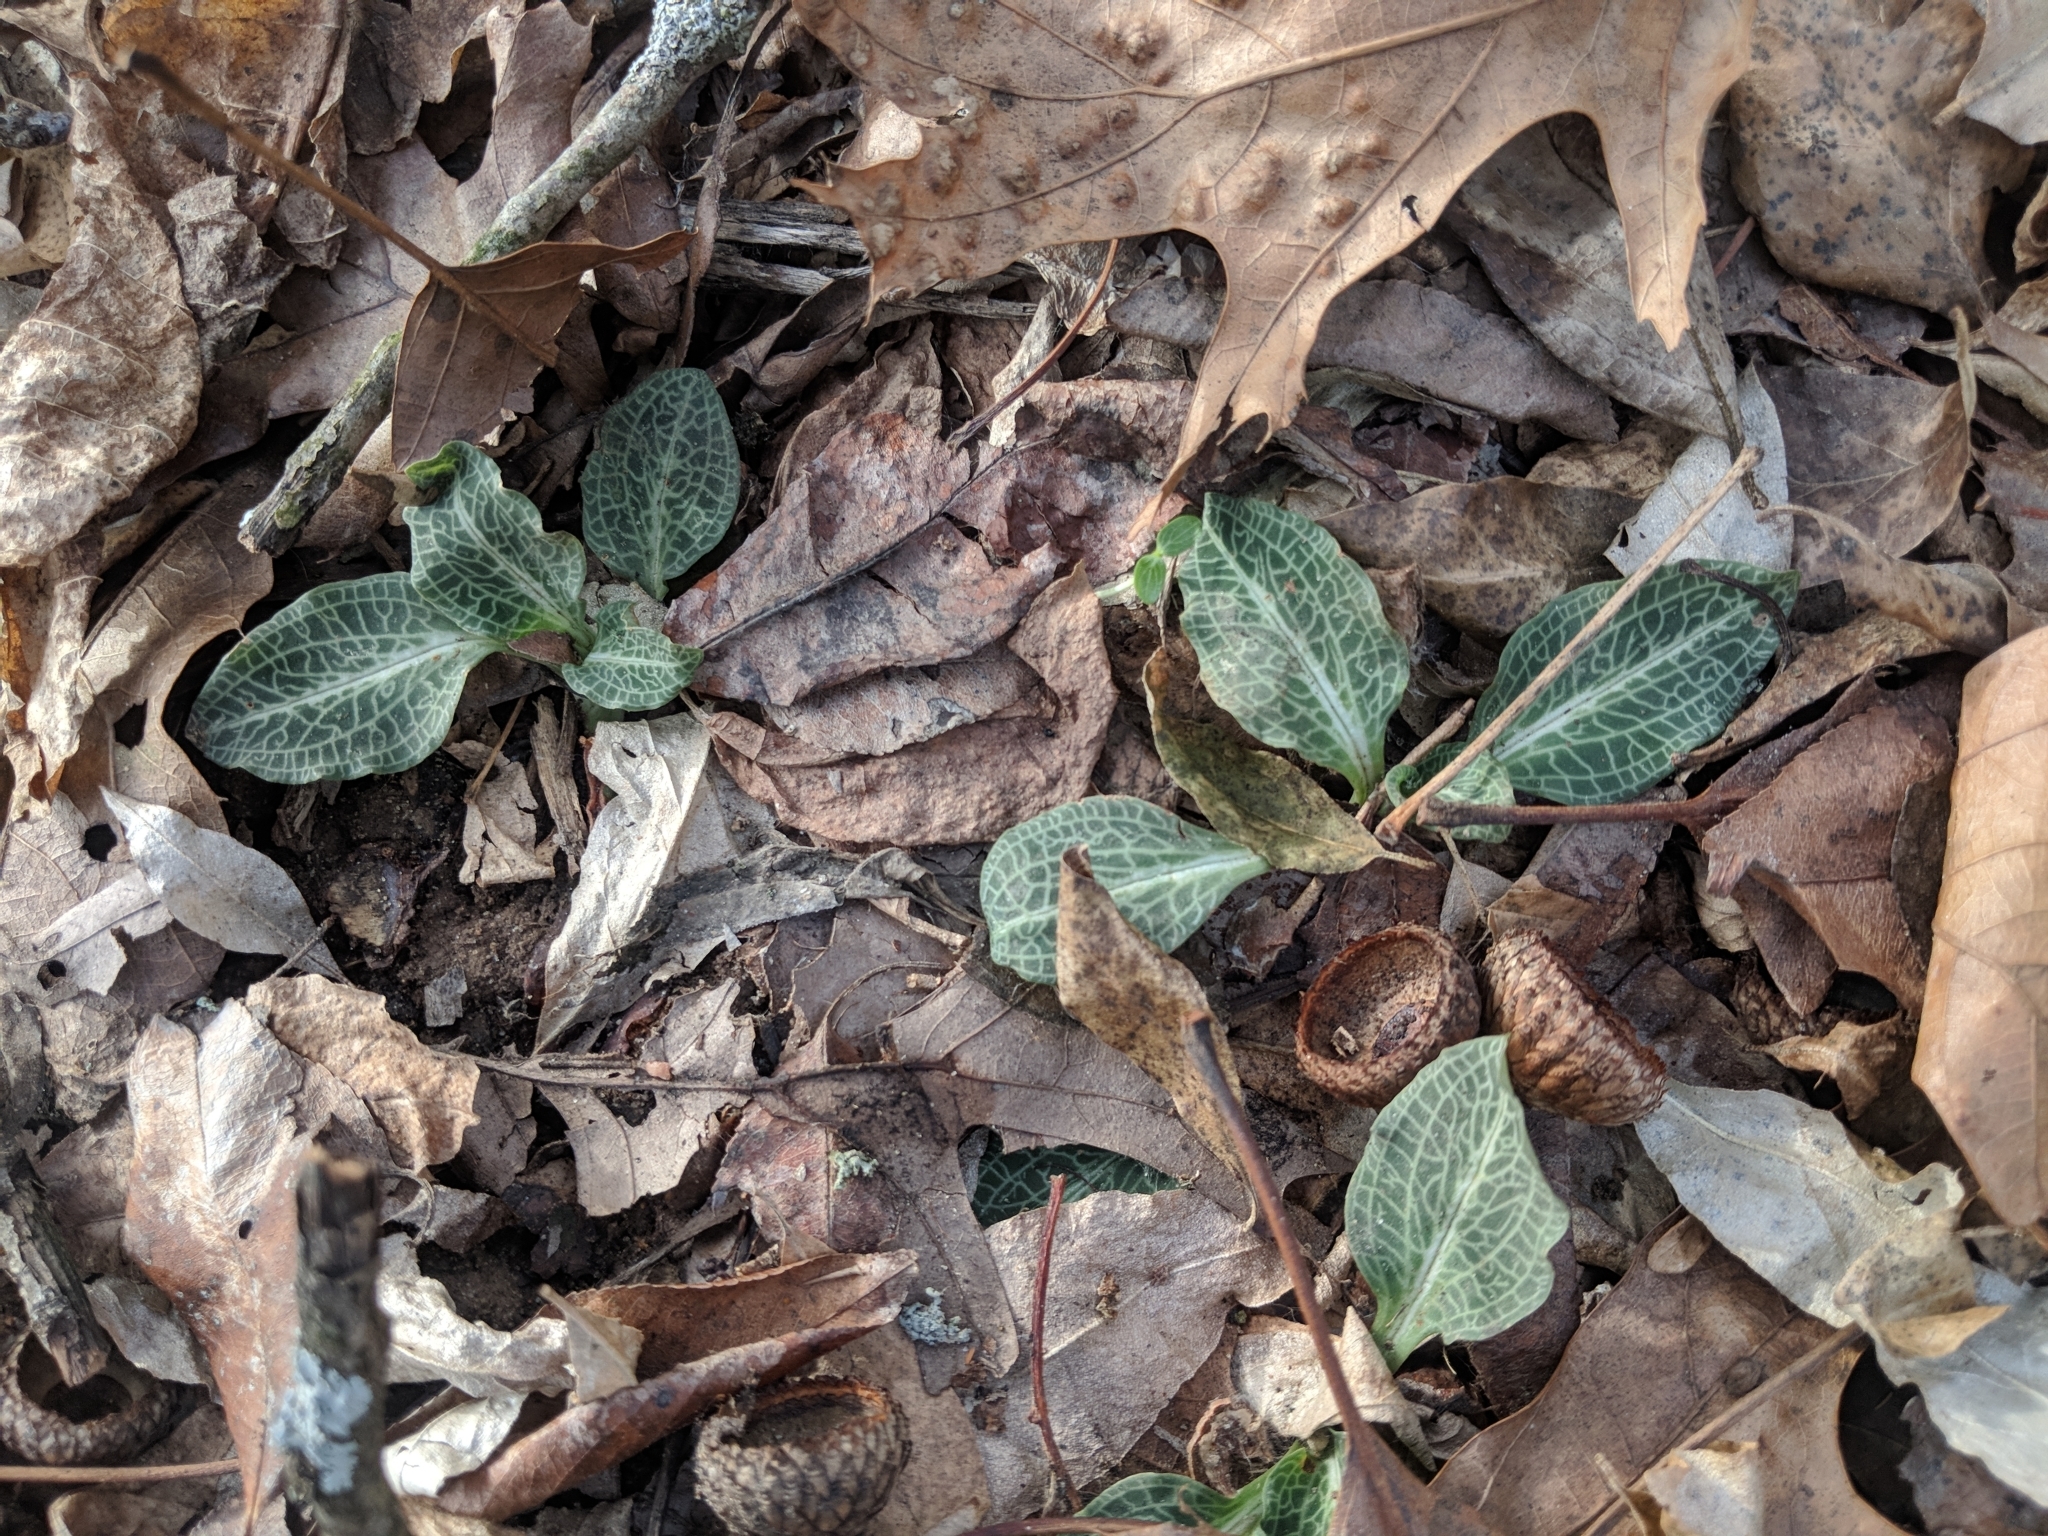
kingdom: Plantae
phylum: Tracheophyta
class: Liliopsida
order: Asparagales
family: Orchidaceae
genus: Goodyera
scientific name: Goodyera pubescens
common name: Downy rattlesnake-plantain
